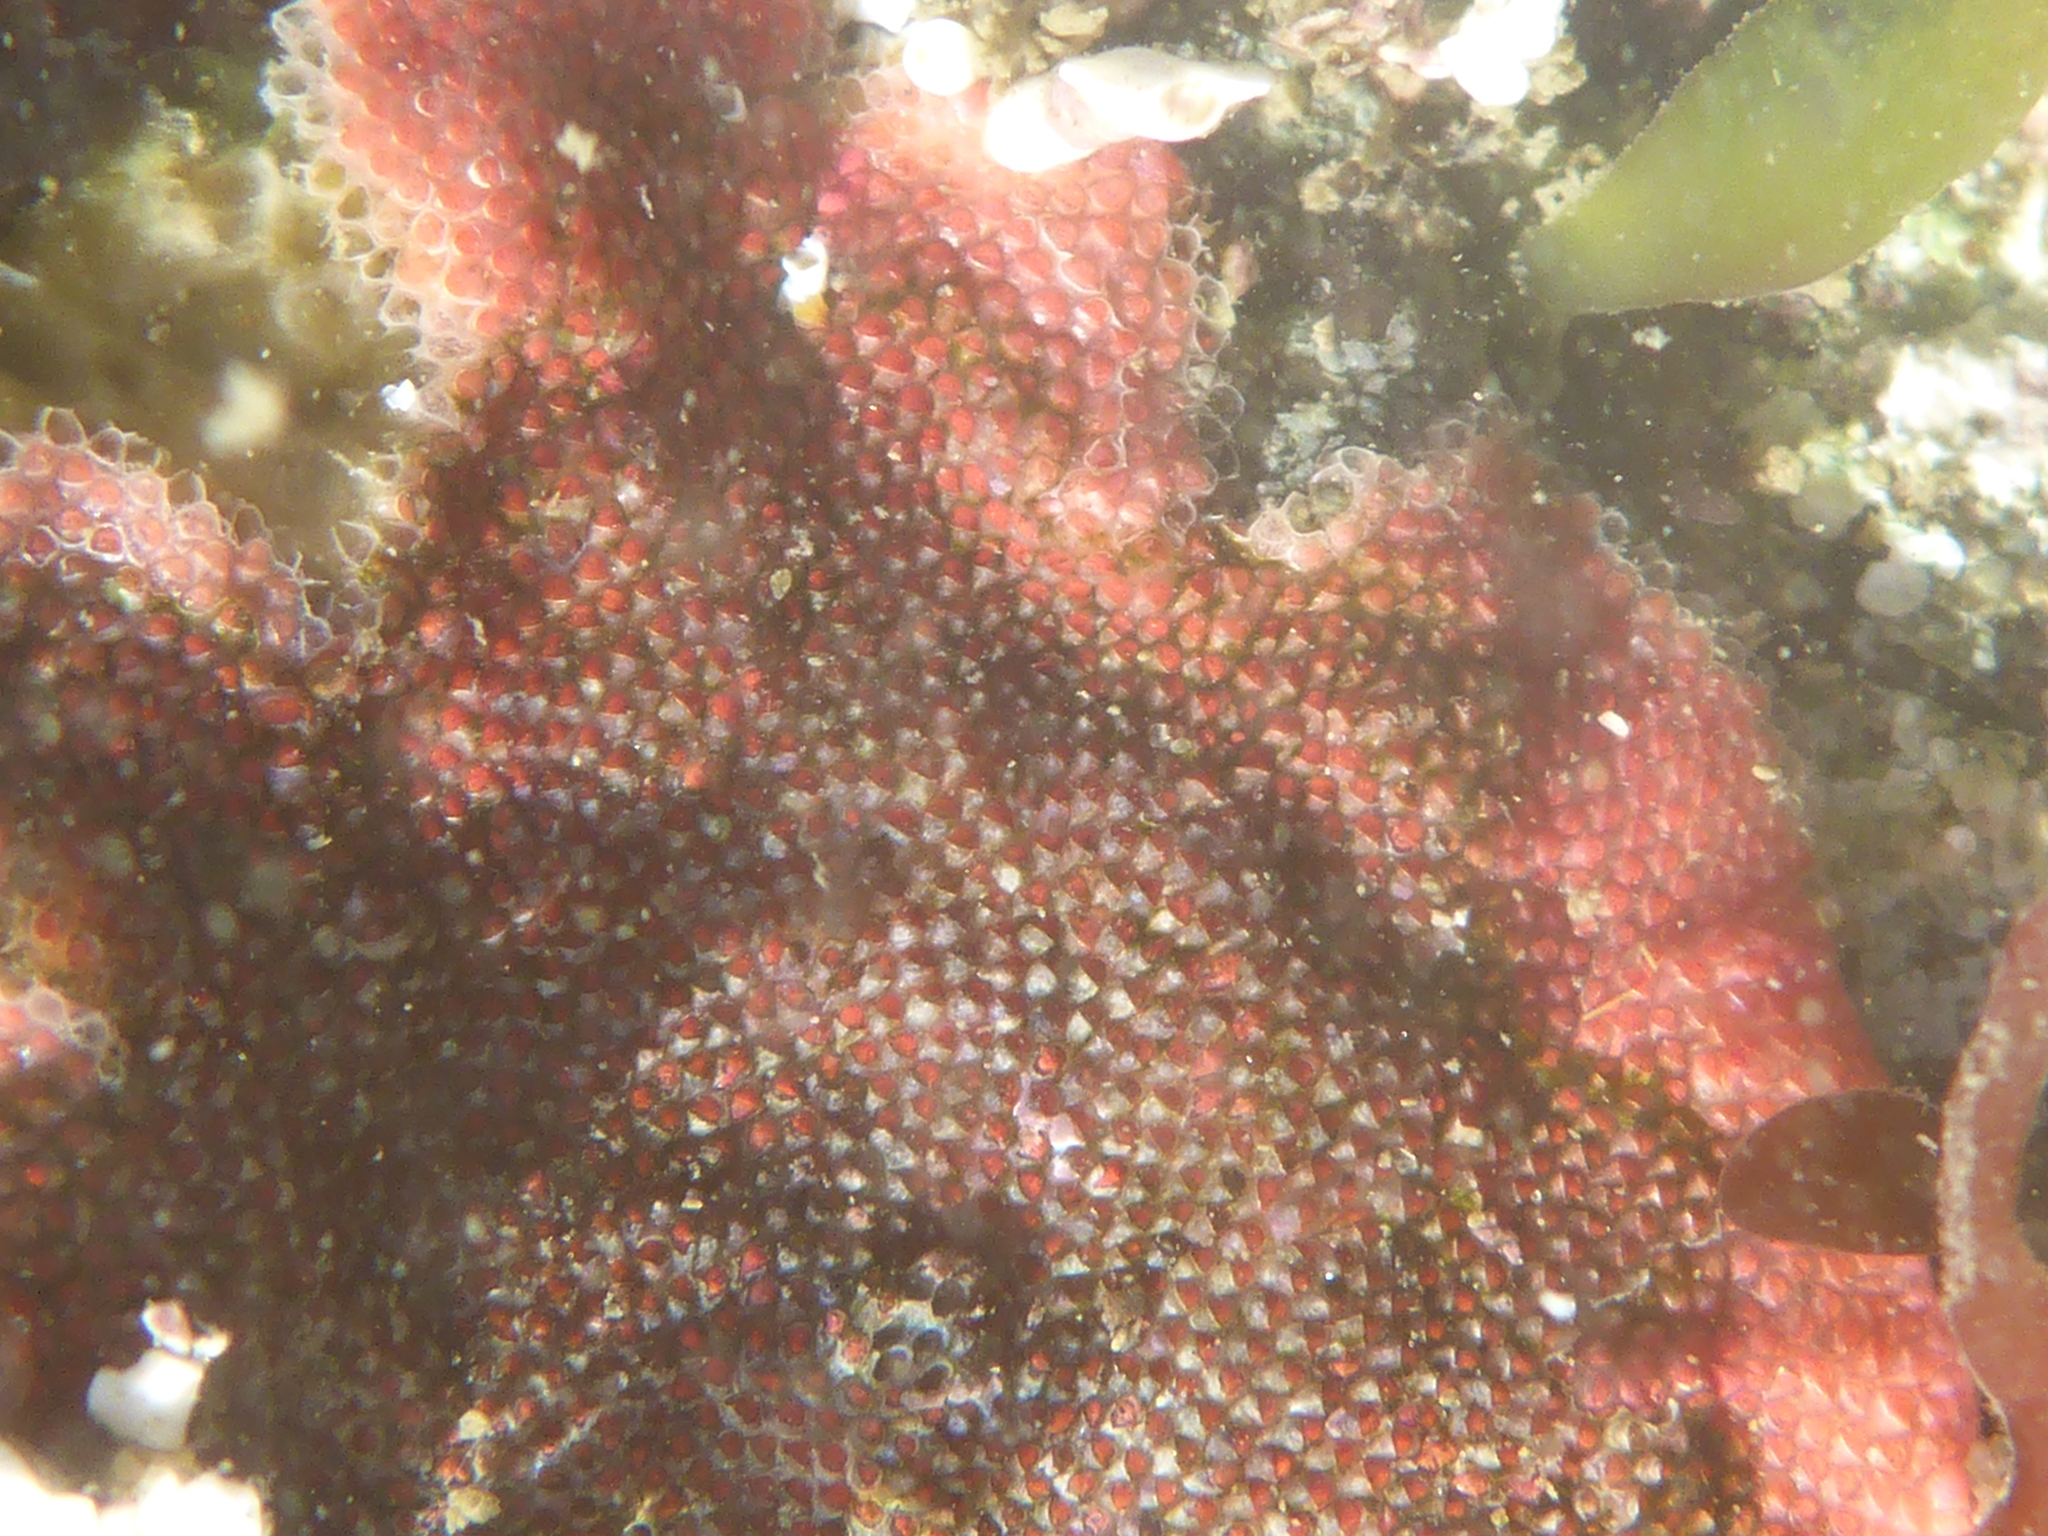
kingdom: Animalia
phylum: Bryozoa
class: Gymnolaemata
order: Cheilostomatida
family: Eurystomellidae
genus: Integripelta
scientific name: Integripelta bilabiata
